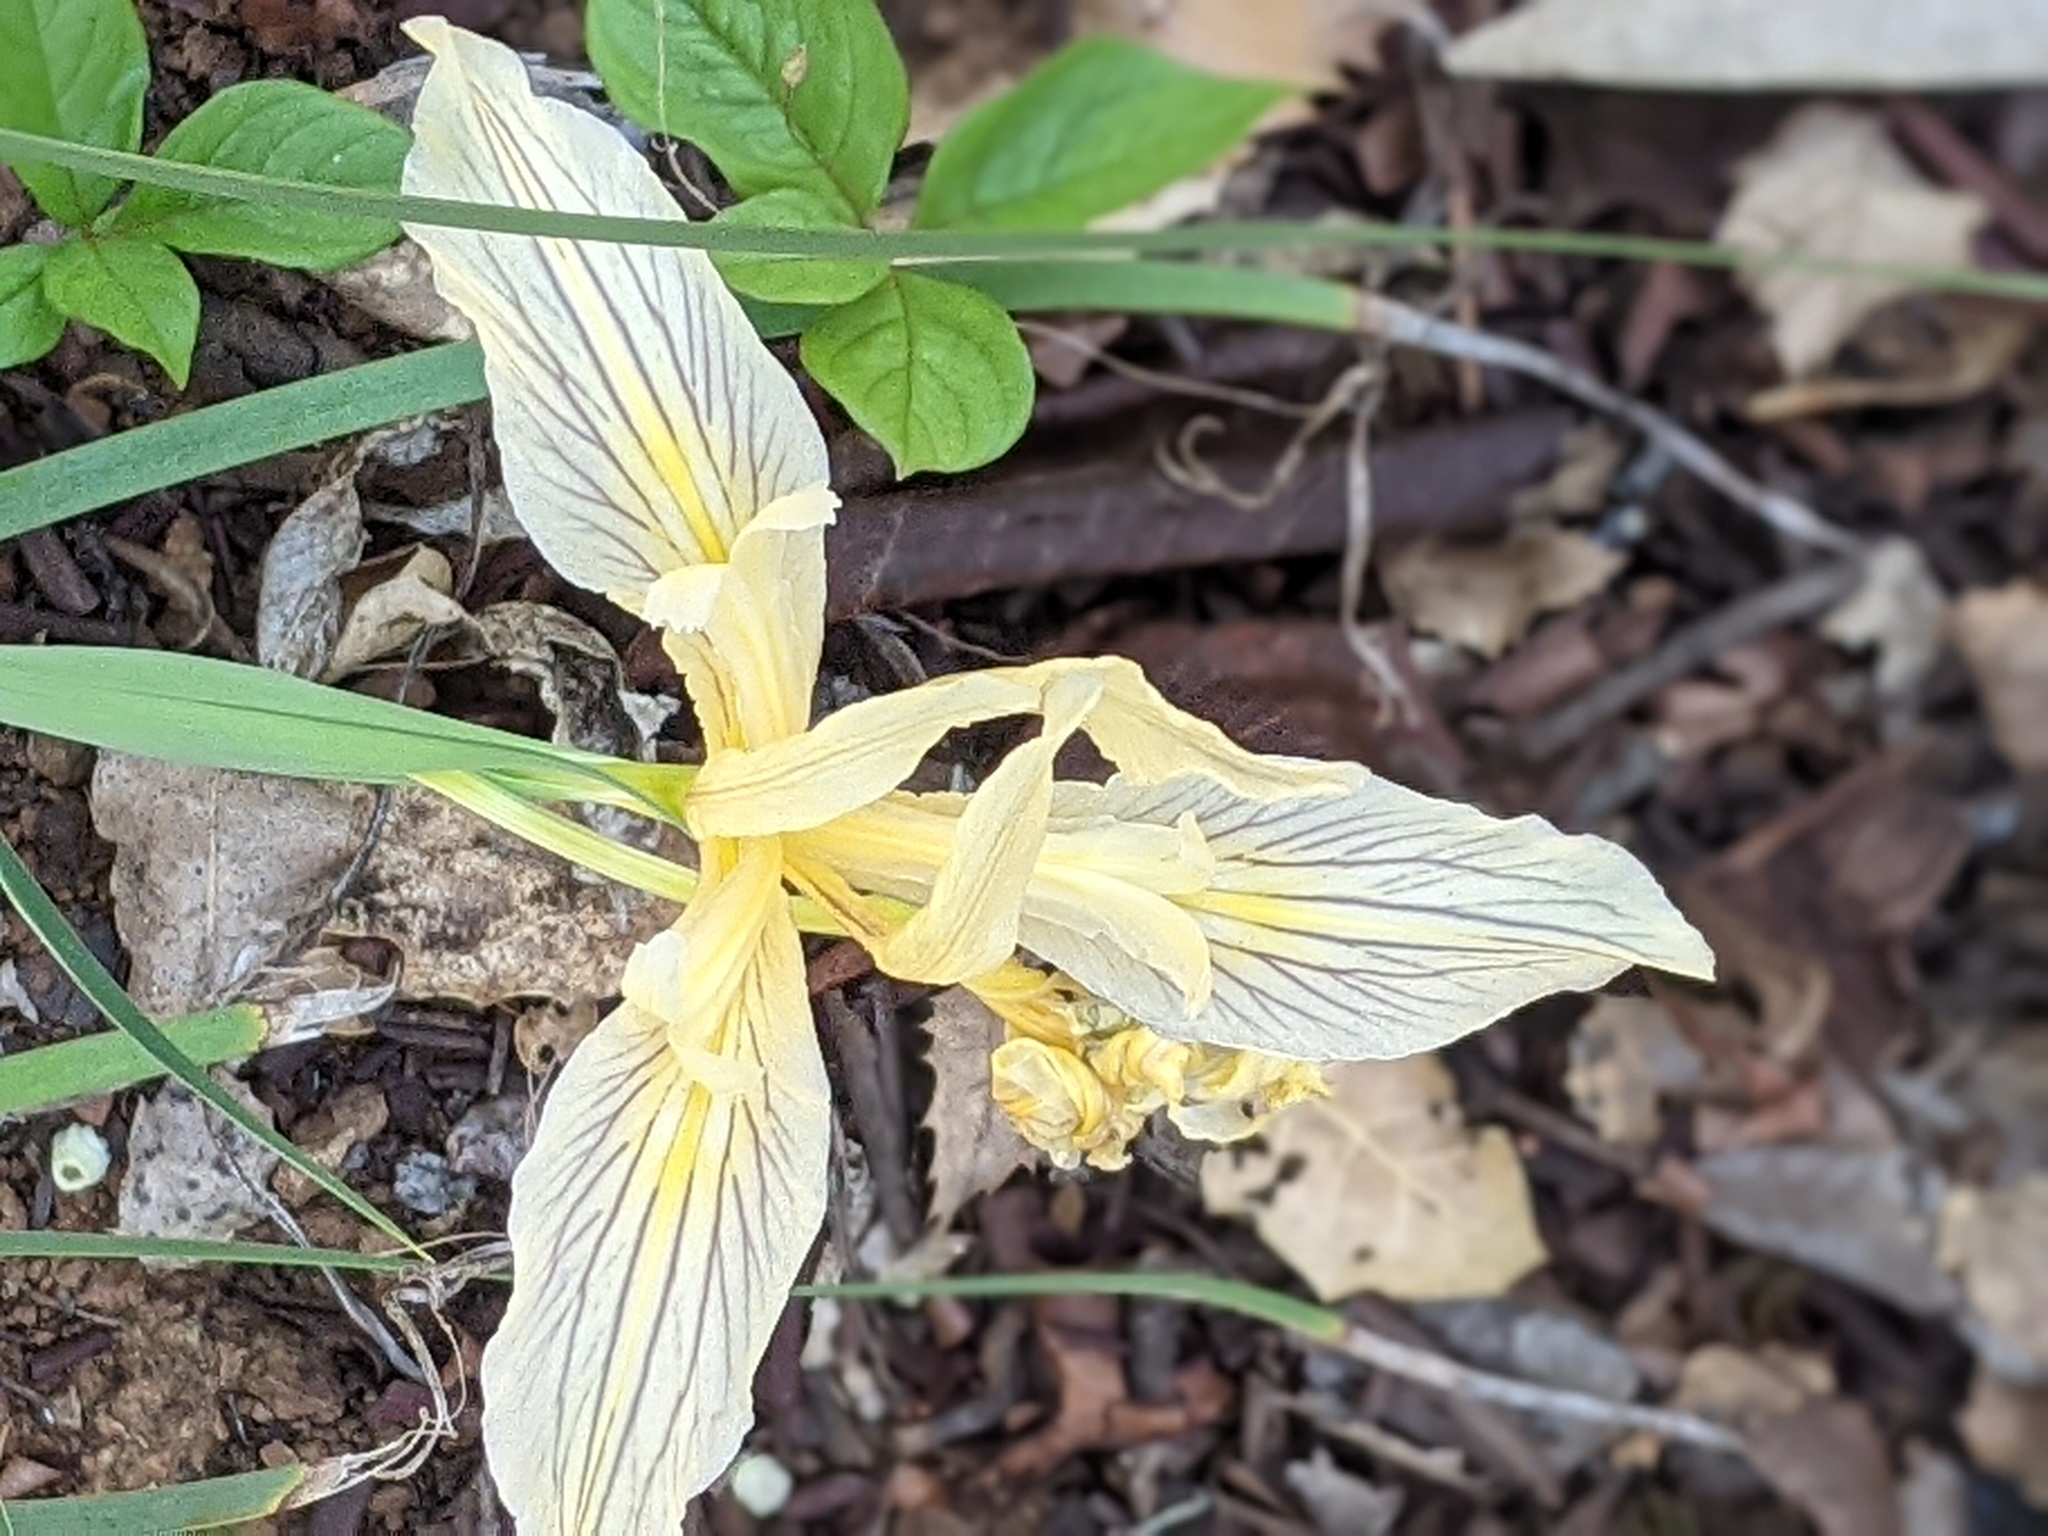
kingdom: Plantae
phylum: Tracheophyta
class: Liliopsida
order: Asparagales
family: Iridaceae
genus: Iris
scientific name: Iris fernaldii
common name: Fernald's iris
